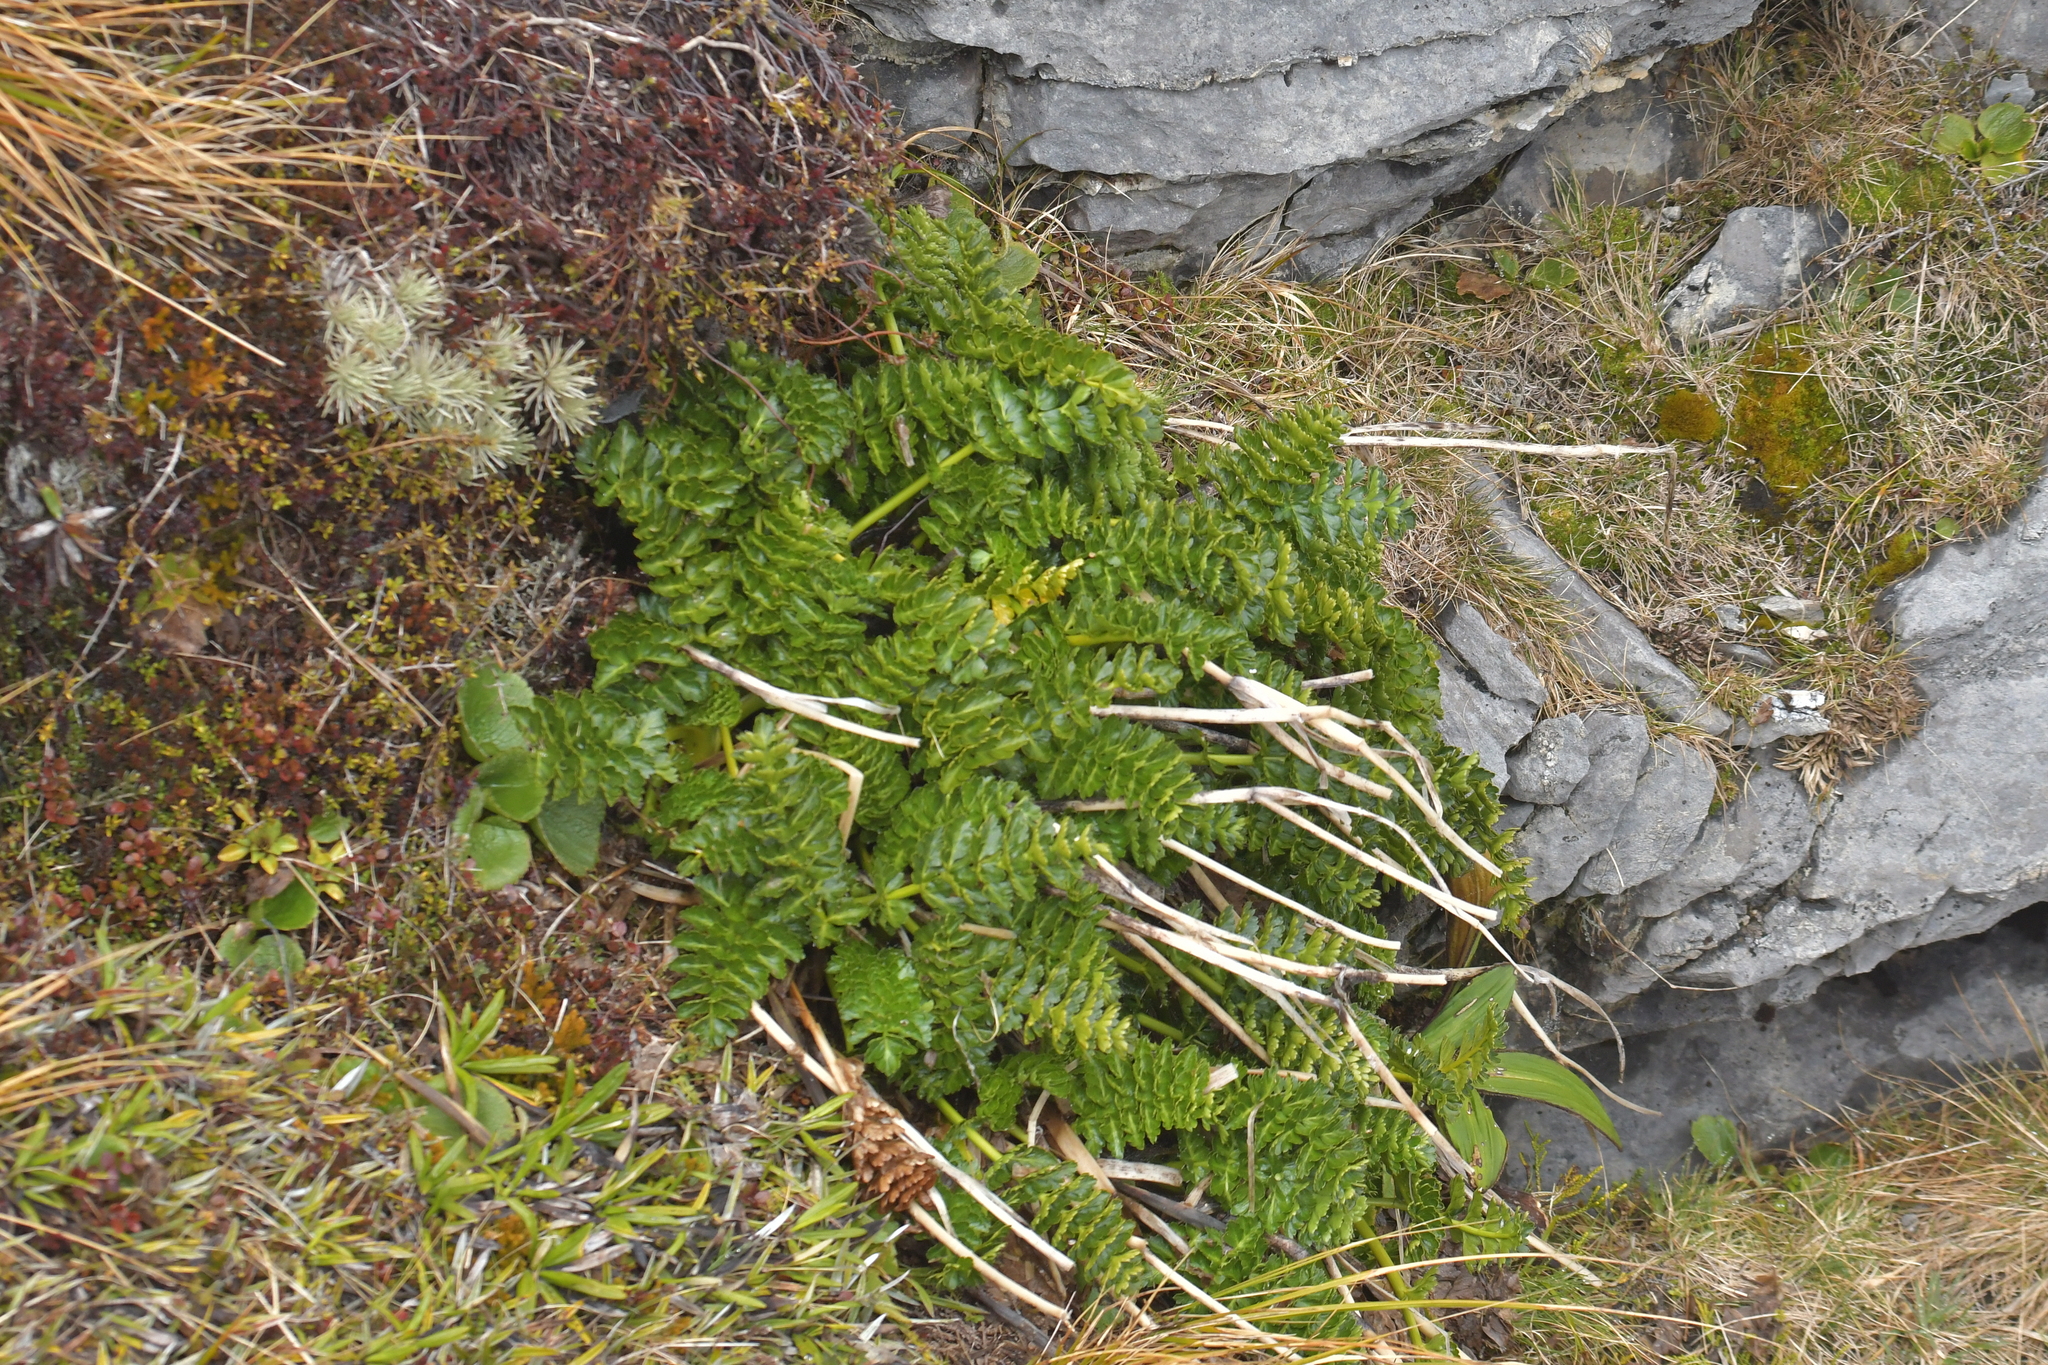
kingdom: Plantae
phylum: Tracheophyta
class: Magnoliopsida
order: Apiales
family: Apiaceae
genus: Anisotome
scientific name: Anisotome pilifera
